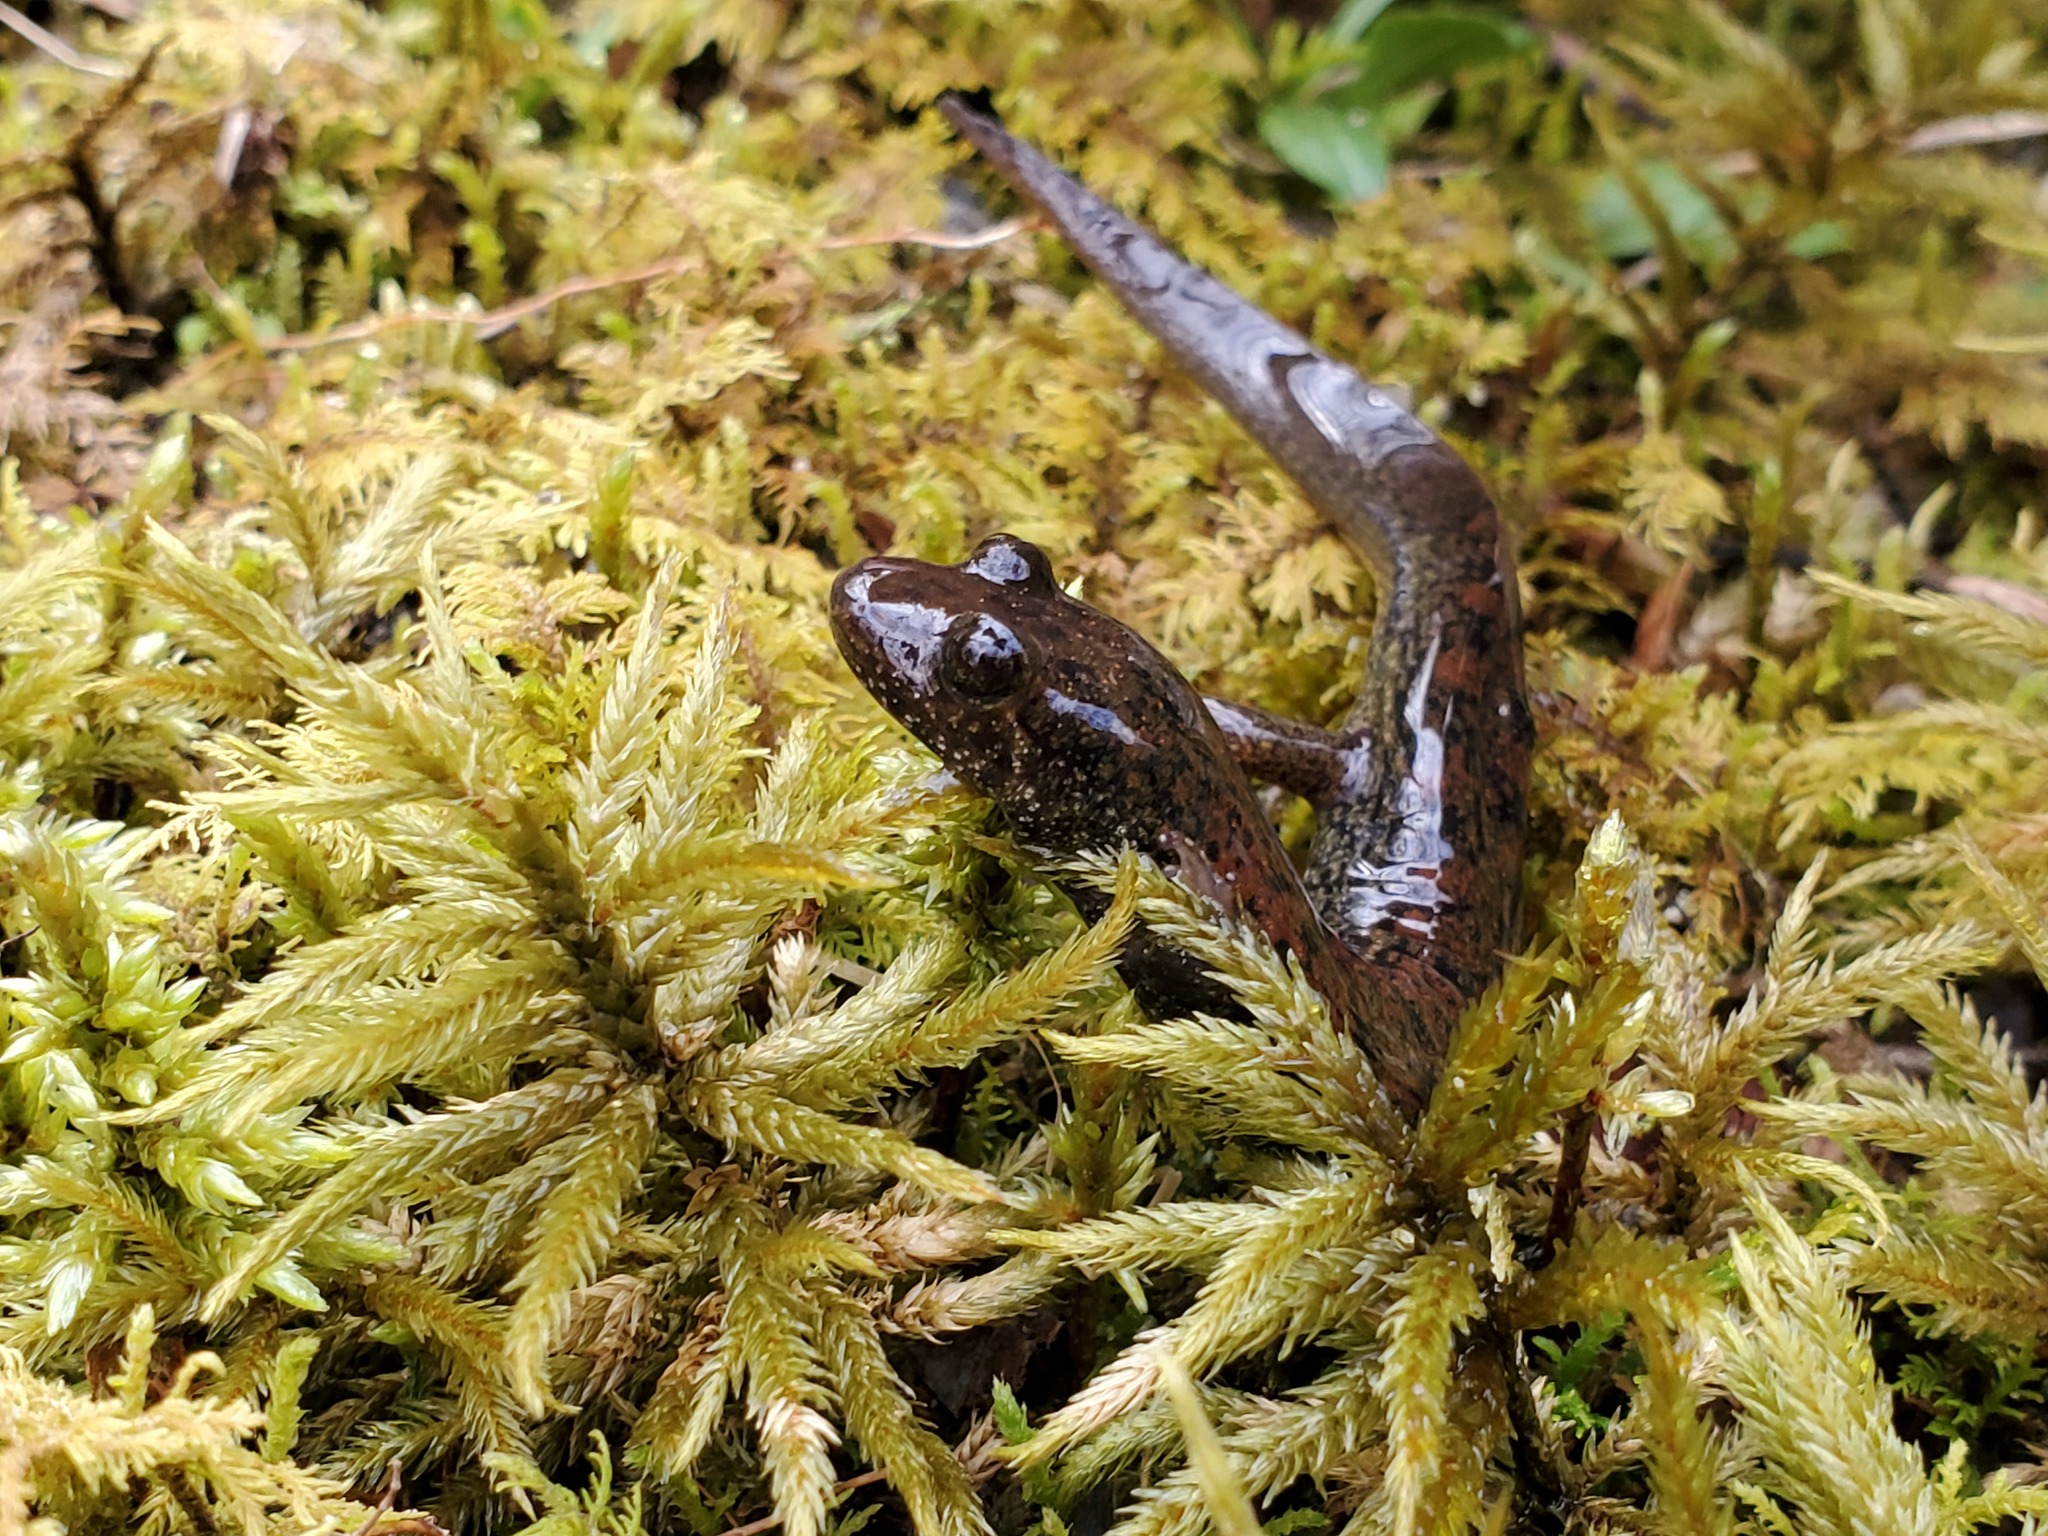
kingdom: Animalia
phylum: Chordata
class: Amphibia
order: Caudata
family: Plethodontidae
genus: Desmognathus
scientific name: Desmognathus
